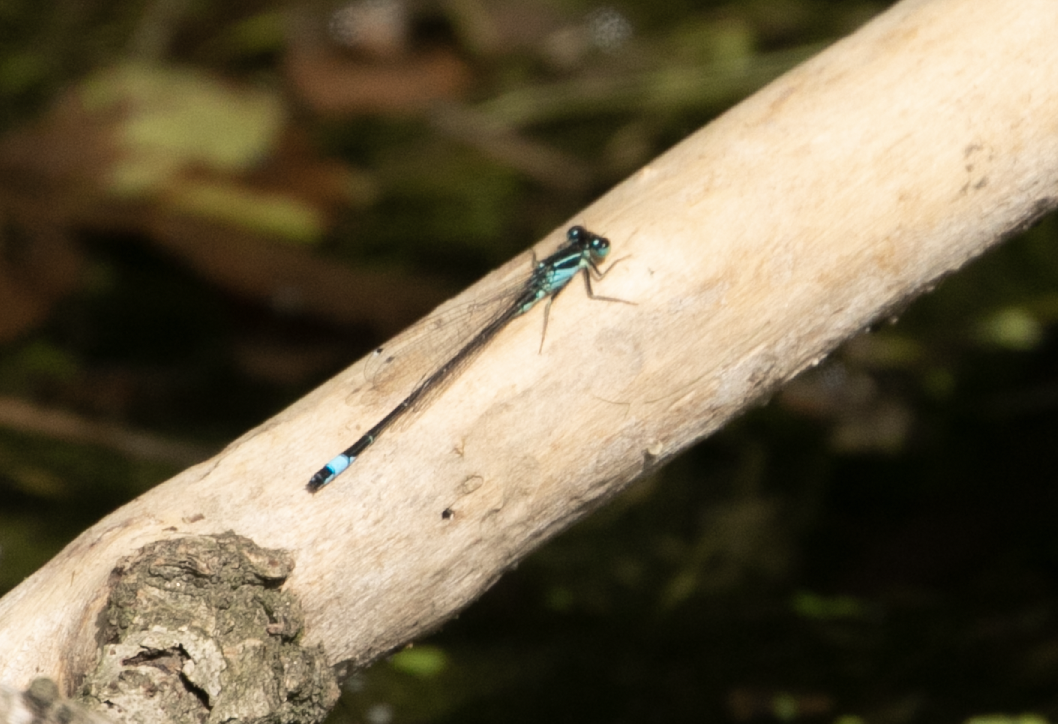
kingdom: Animalia
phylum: Arthropoda
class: Insecta
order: Odonata
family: Coenagrionidae
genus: Ischnura
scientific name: Ischnura elegans
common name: Blue-tailed damselfly
